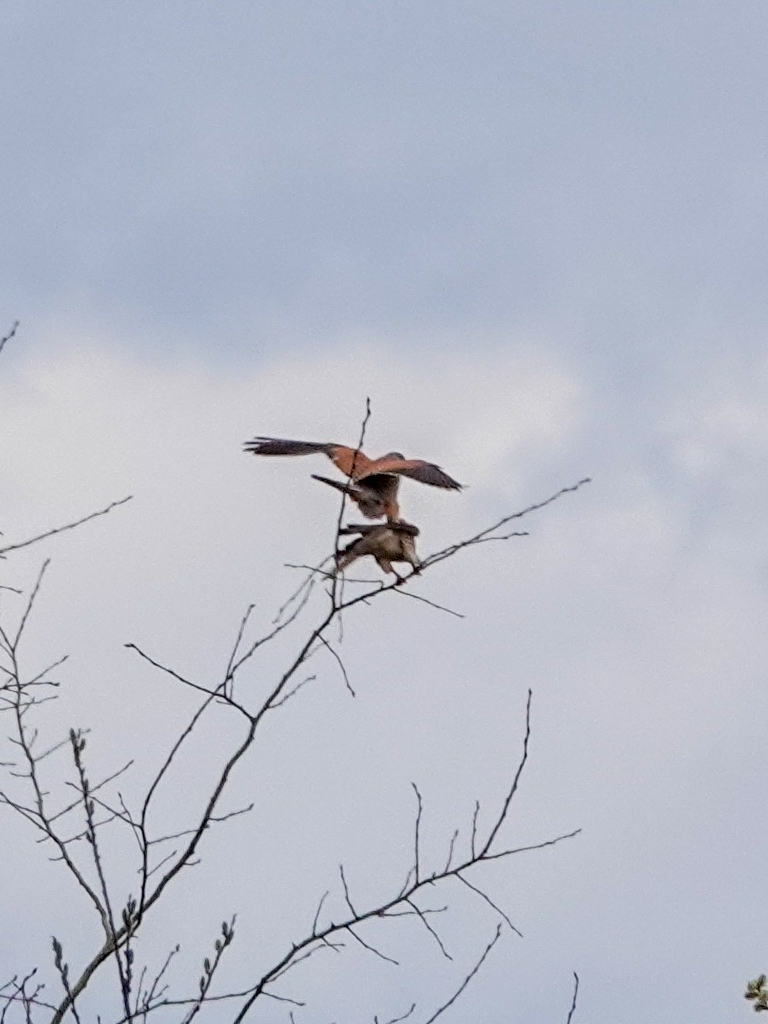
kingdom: Animalia
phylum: Chordata
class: Aves
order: Falconiformes
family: Falconidae
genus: Falco
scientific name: Falco tinnunculus
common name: Common kestrel
